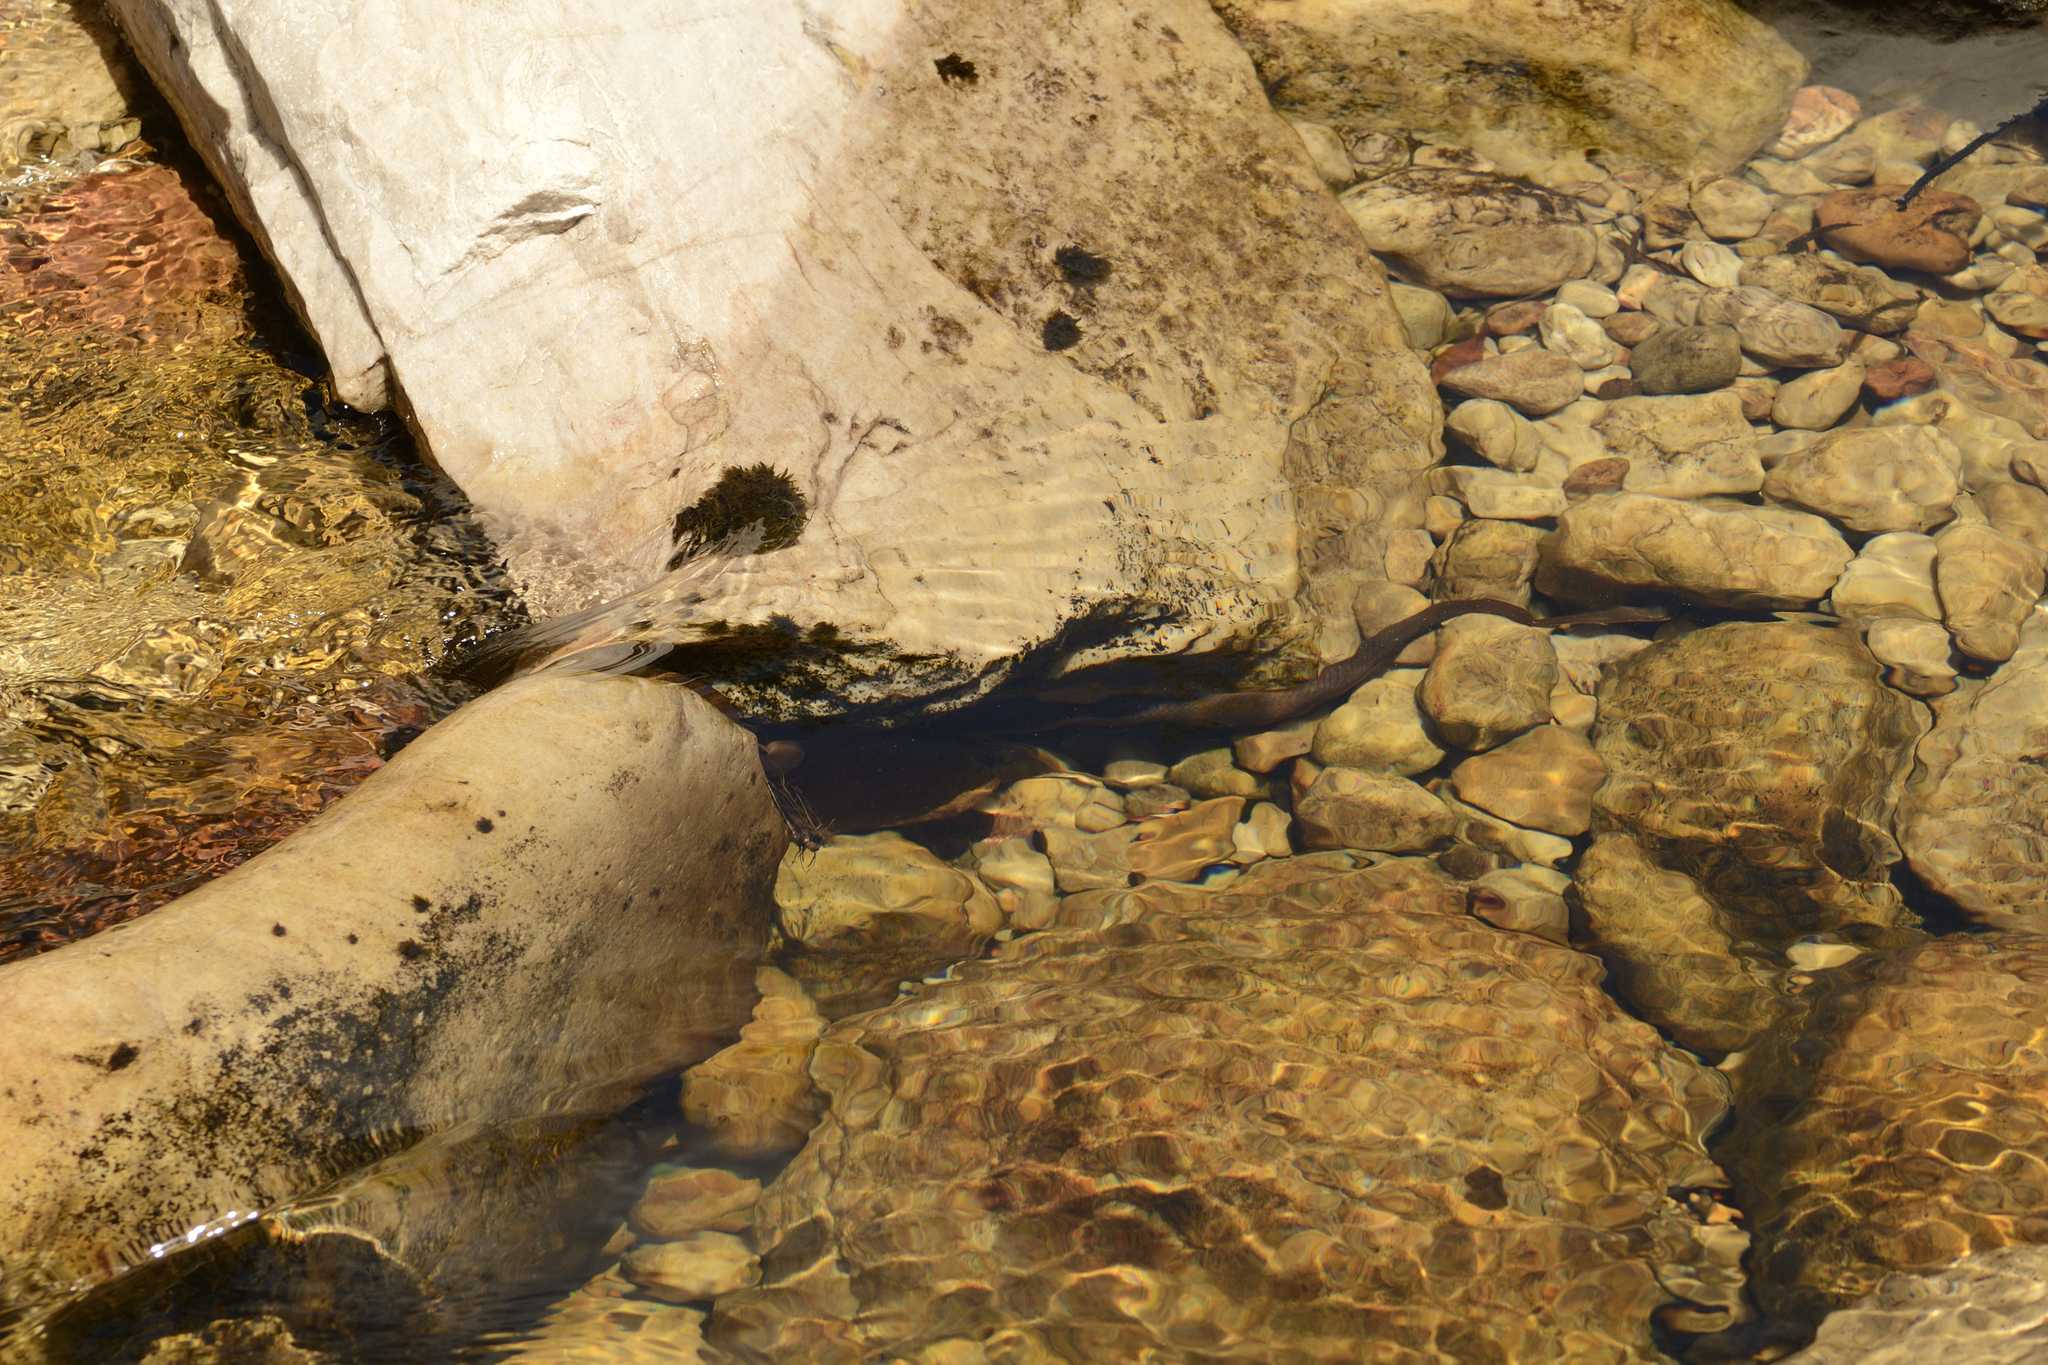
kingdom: Animalia
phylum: Chordata
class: Squamata
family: Lamprophiidae
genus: Lycodonomorphus
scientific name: Lycodonomorphus rufulus
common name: Brown water snake
